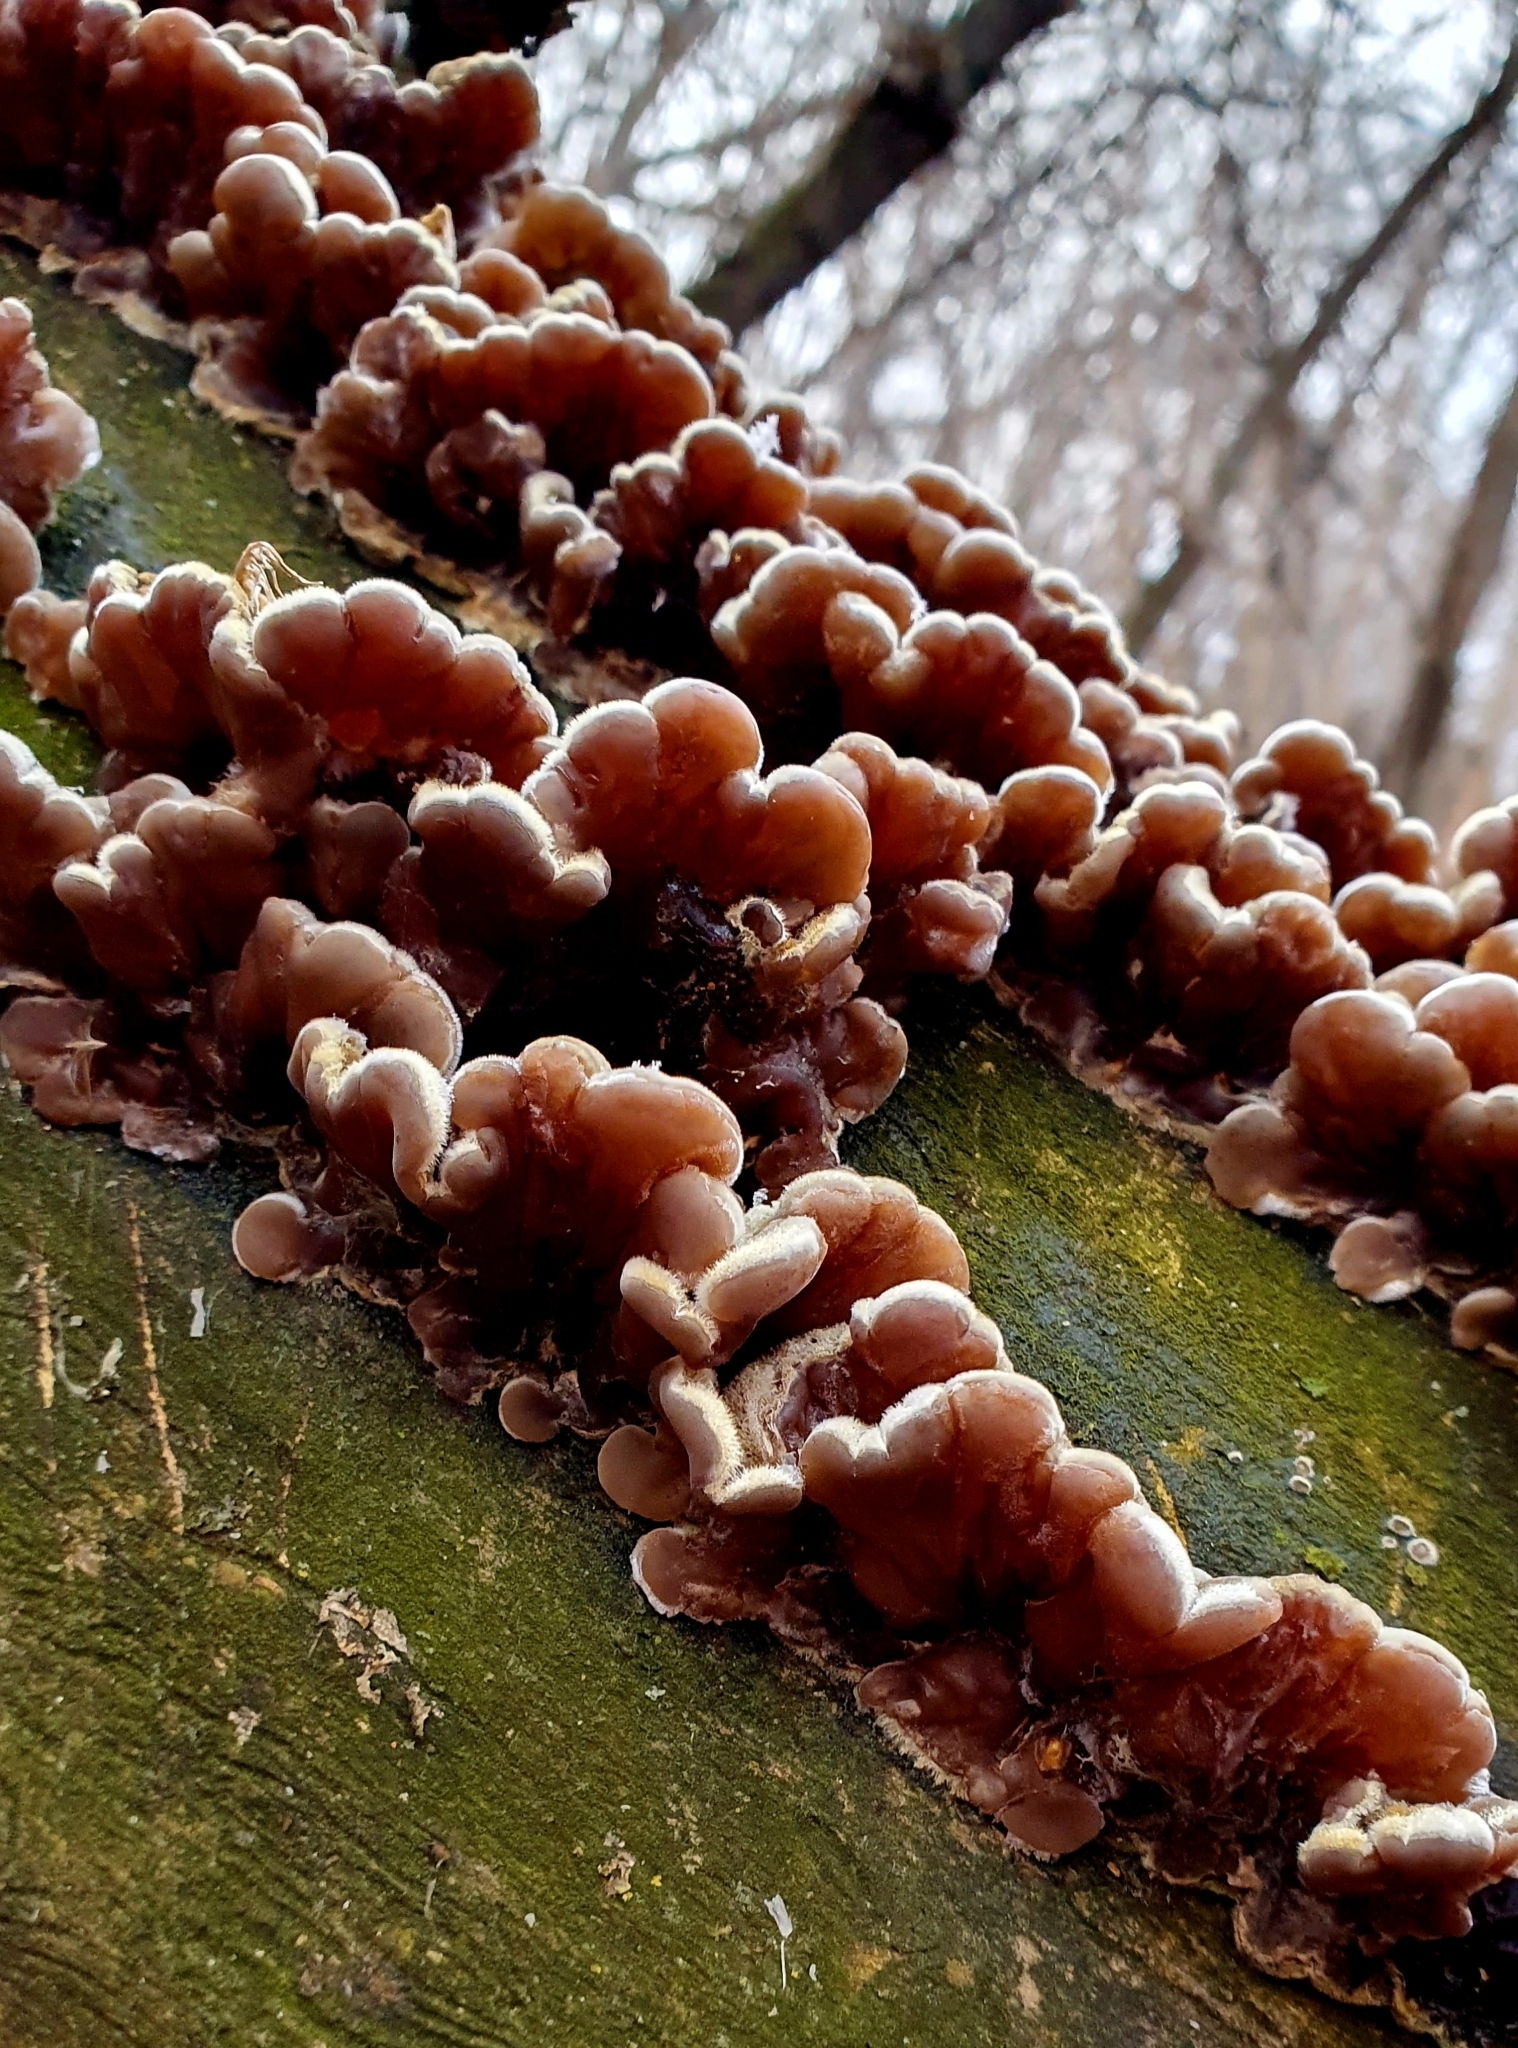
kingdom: Fungi
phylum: Basidiomycota
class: Agaricomycetes
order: Auriculariales
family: Auriculariaceae
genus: Auricularia
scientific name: Auricularia mesenterica
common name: Tripe fungus
